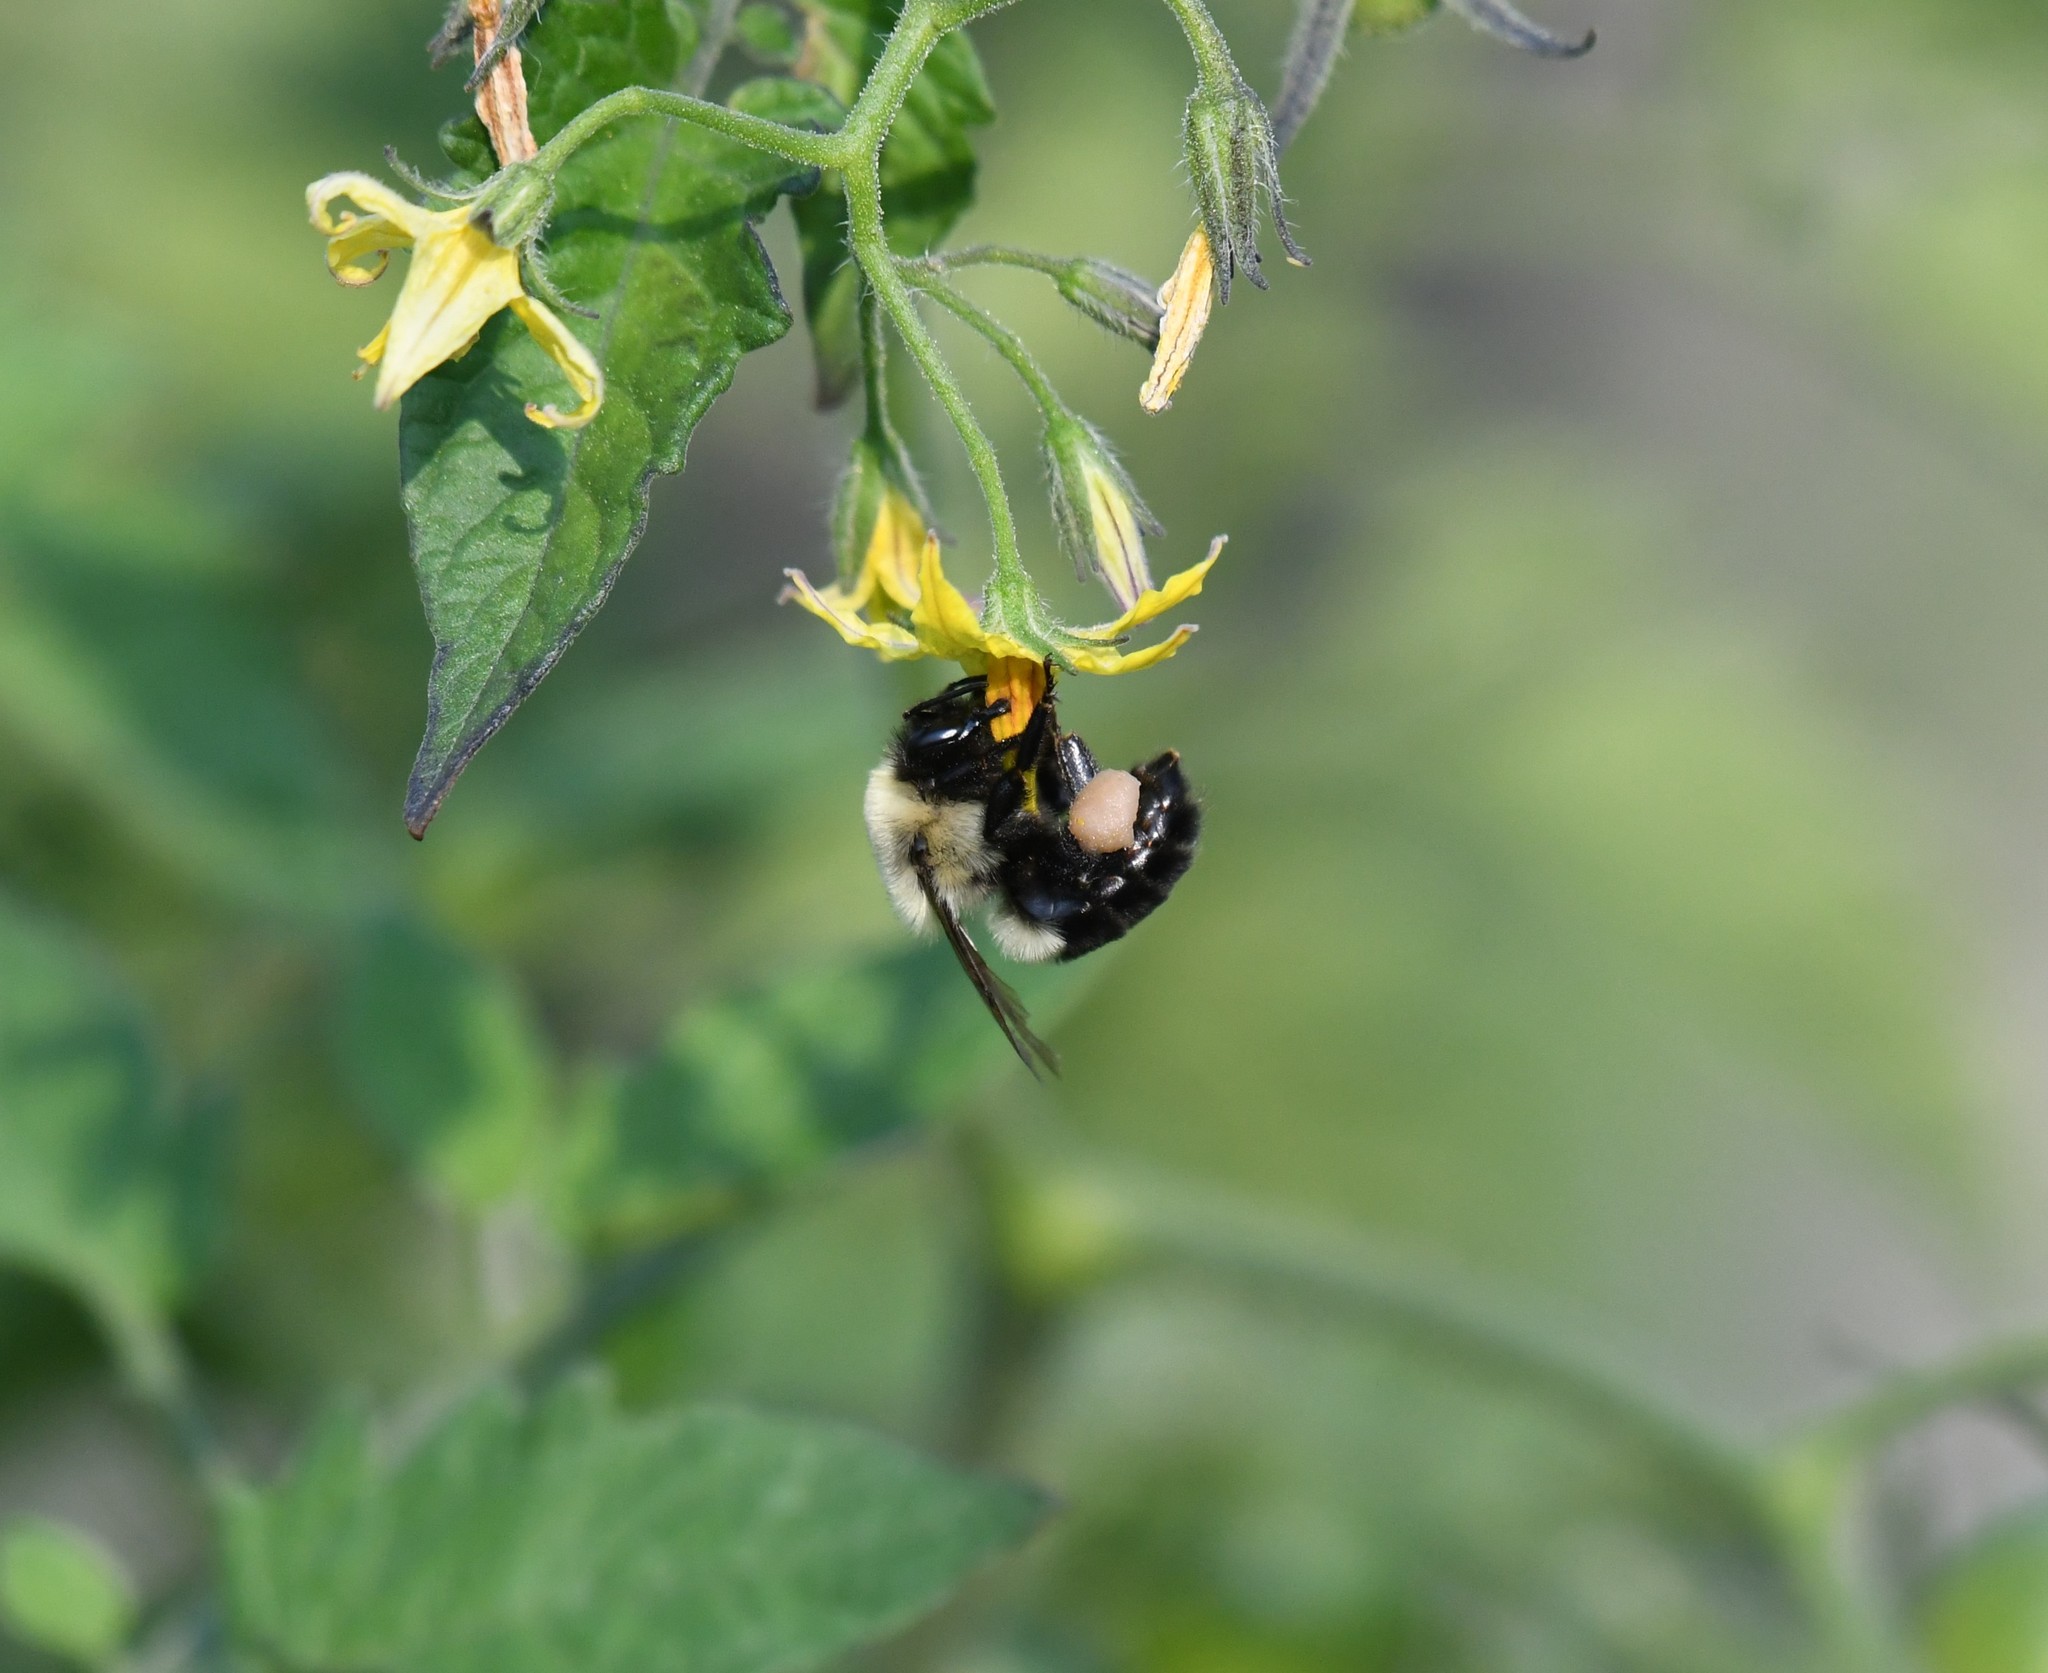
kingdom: Animalia
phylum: Arthropoda
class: Insecta
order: Hymenoptera
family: Apidae
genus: Bombus
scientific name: Bombus impatiens
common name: Common eastern bumble bee
